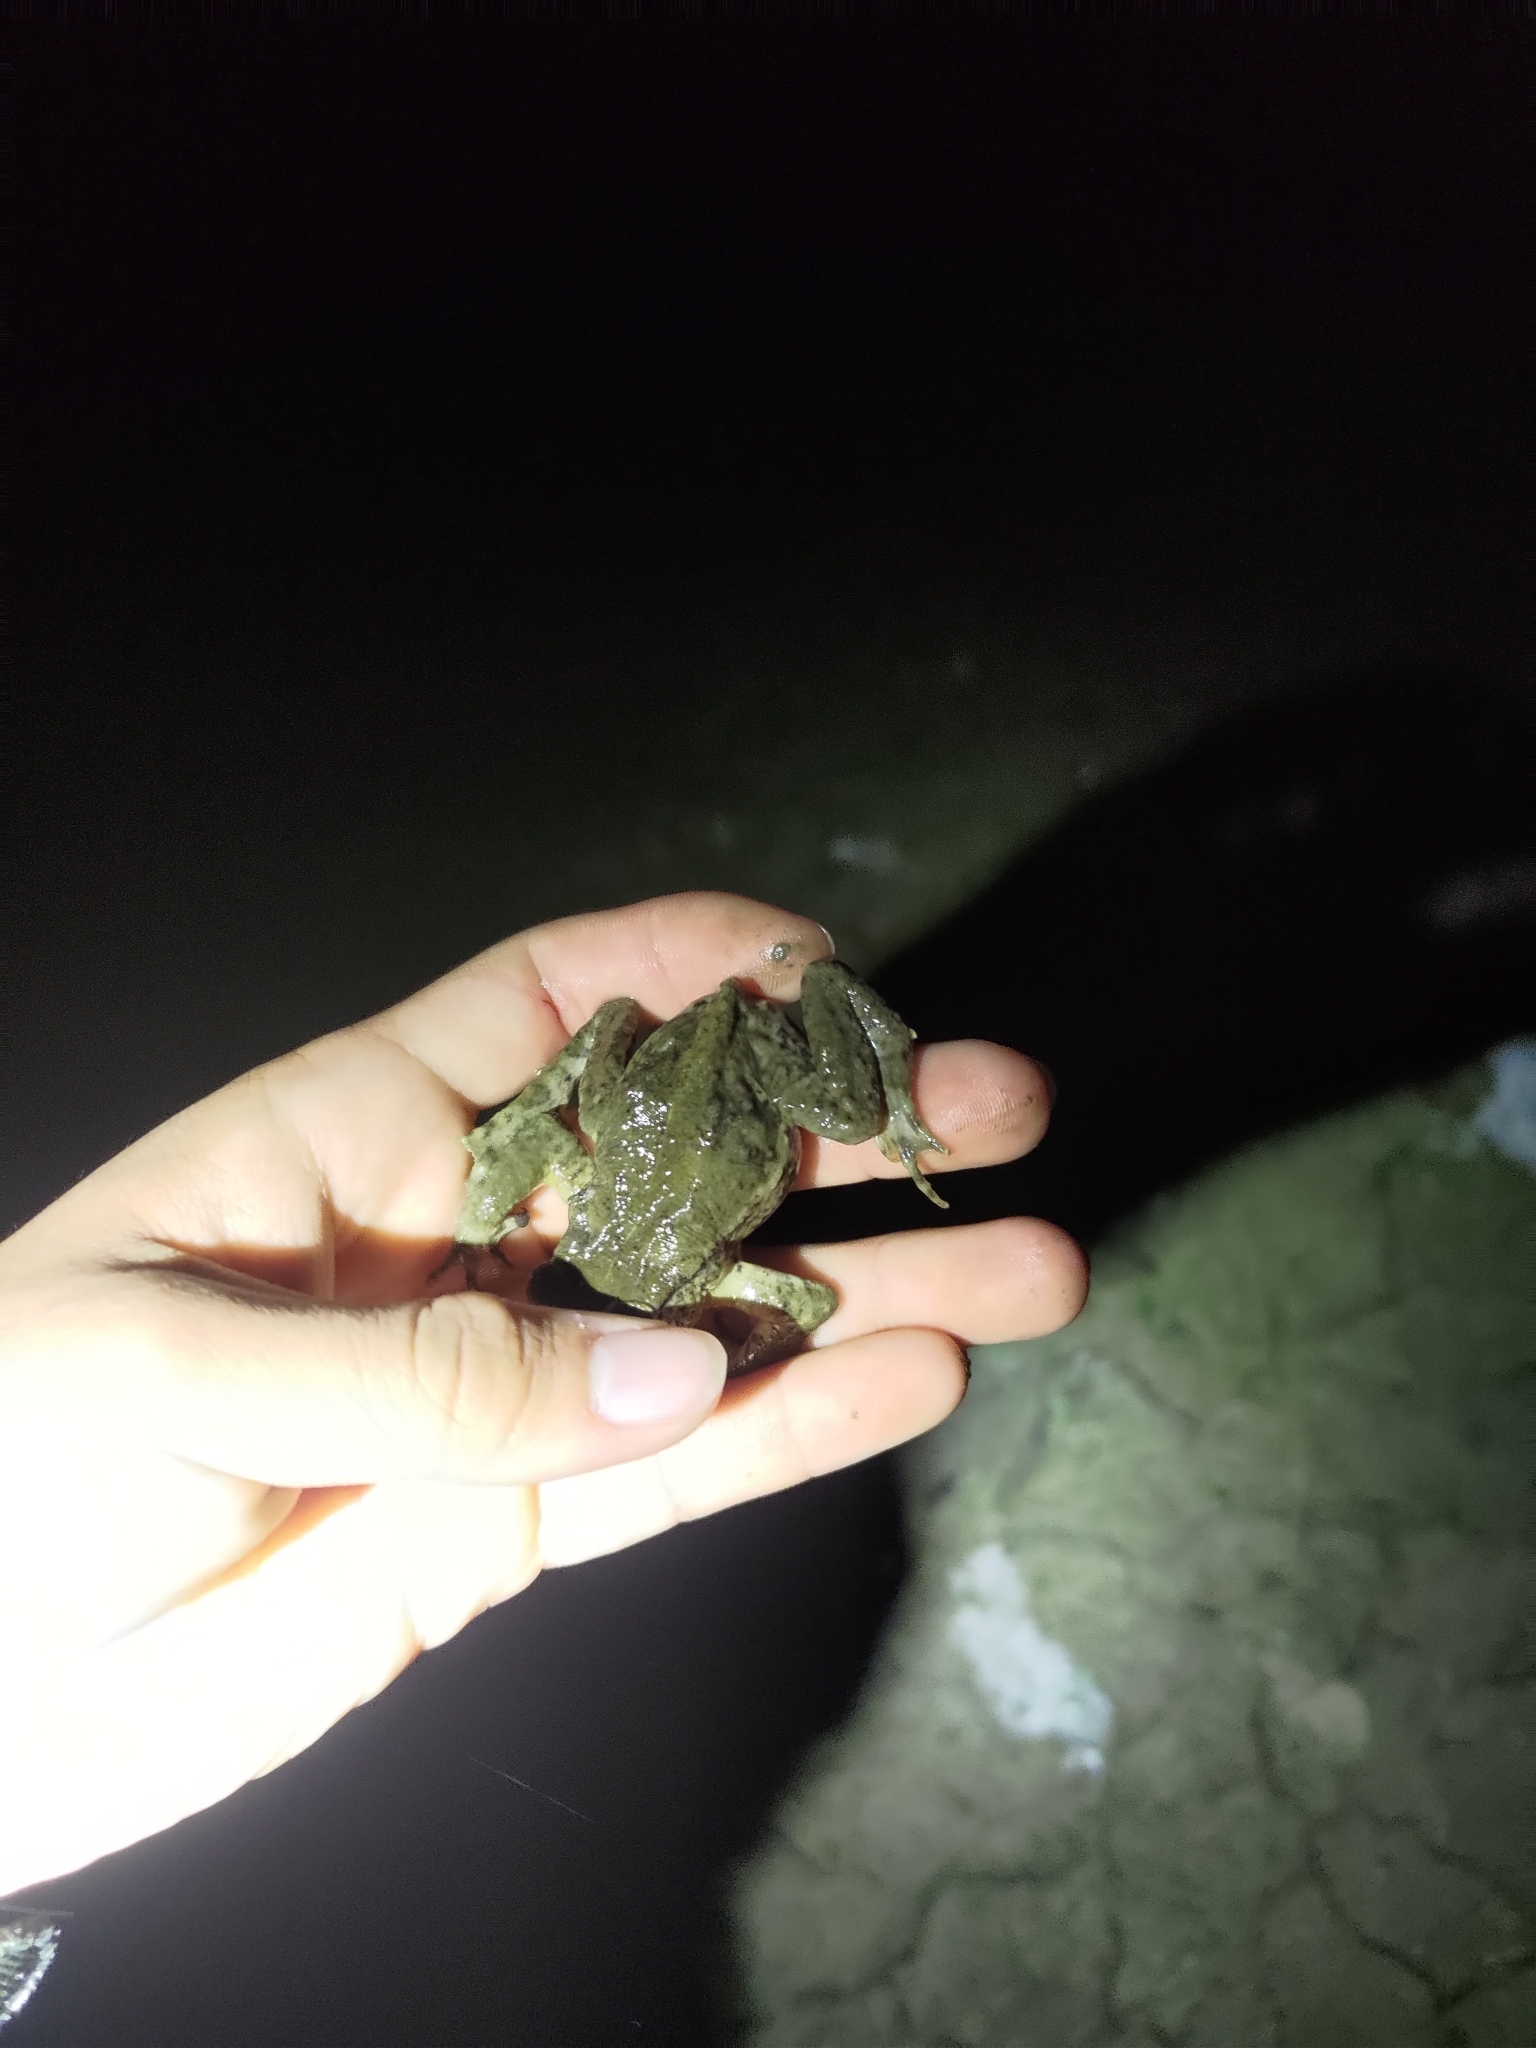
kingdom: Animalia
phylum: Chordata
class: Amphibia
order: Anura
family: Bufonidae
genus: Bufo
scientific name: Bufo bankorensis
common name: Bankor toad
